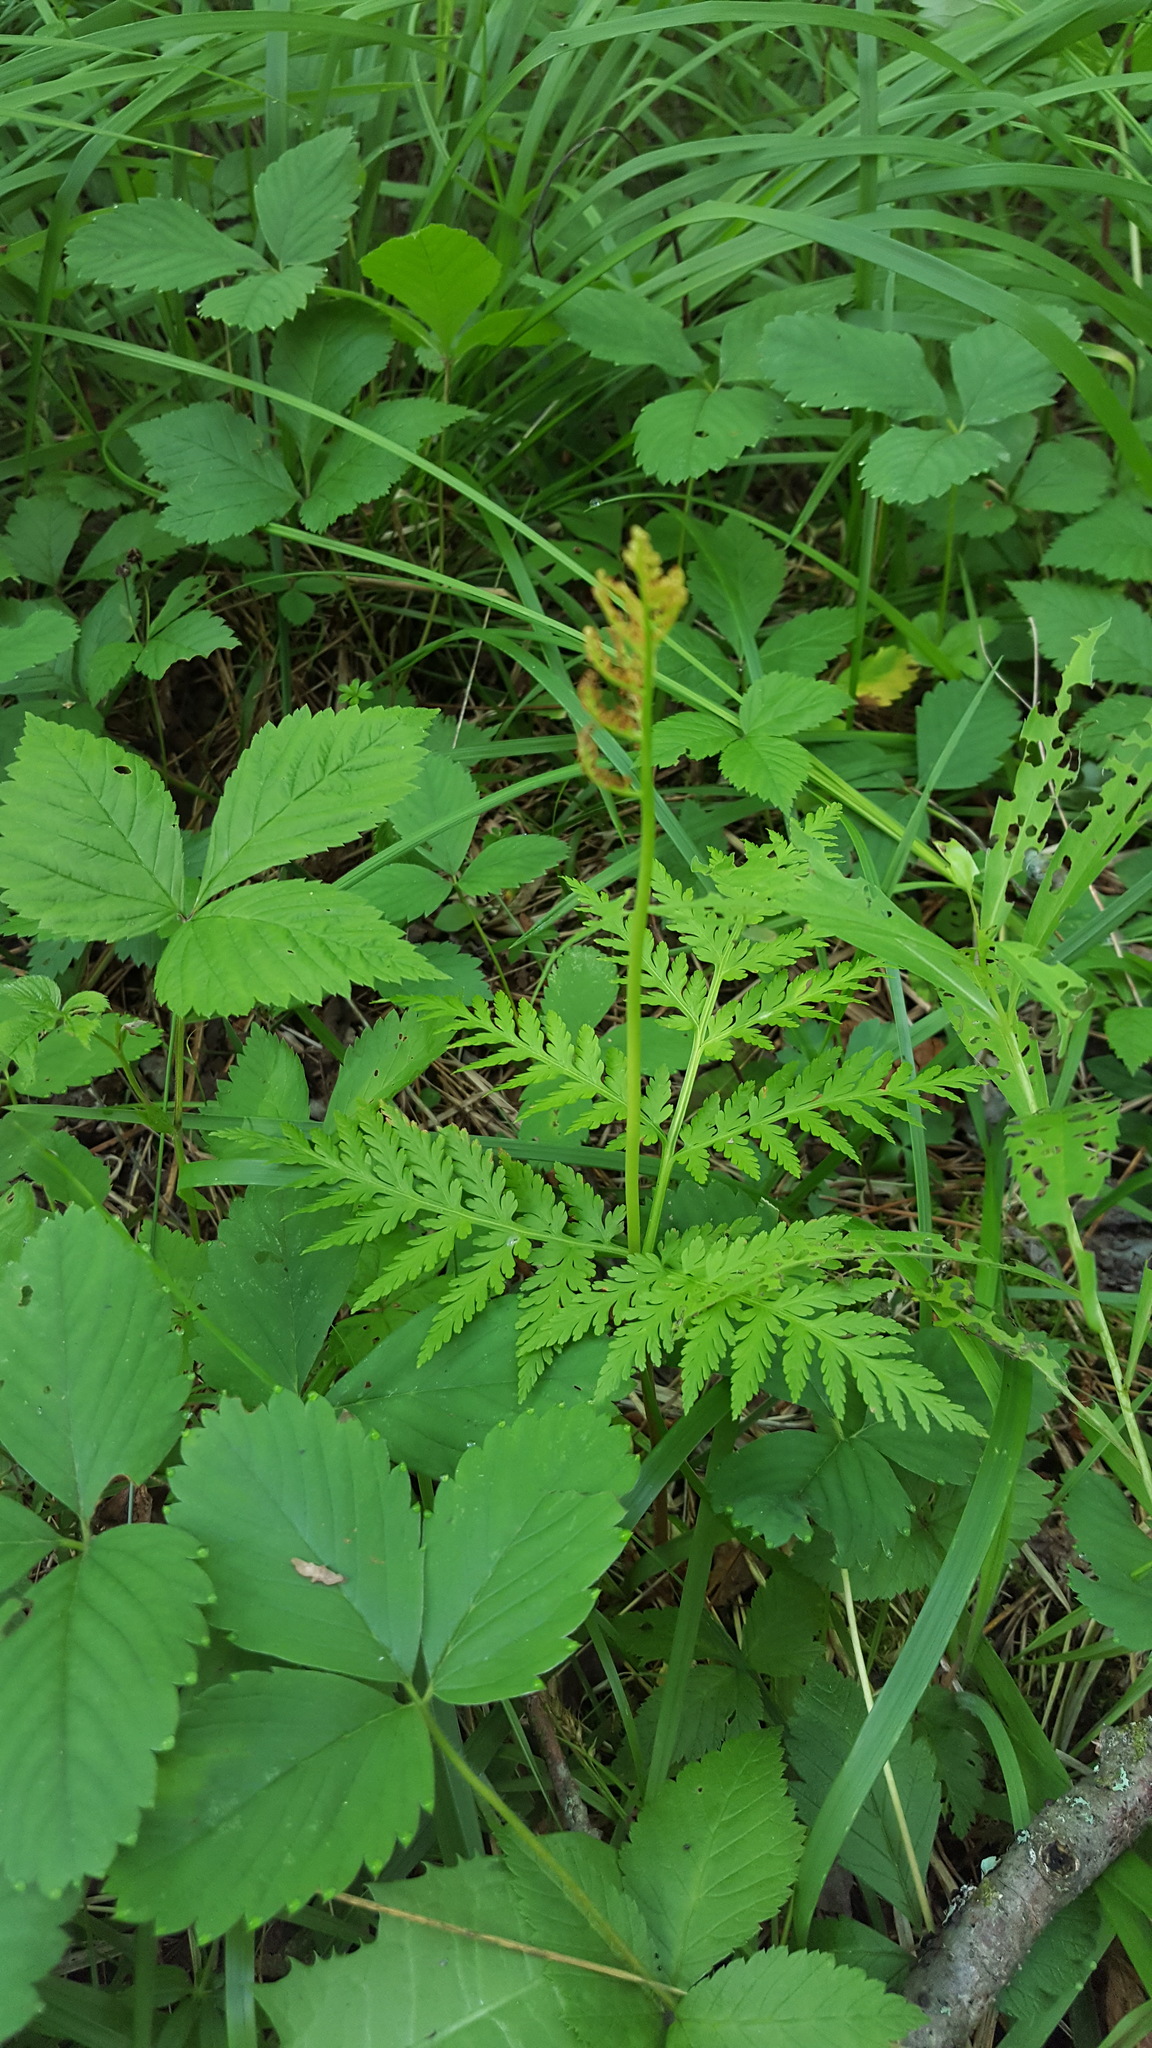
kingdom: Plantae
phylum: Tracheophyta
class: Polypodiopsida
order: Ophioglossales
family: Ophioglossaceae
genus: Botrypus
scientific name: Botrypus virginianus
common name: Common grapefern
